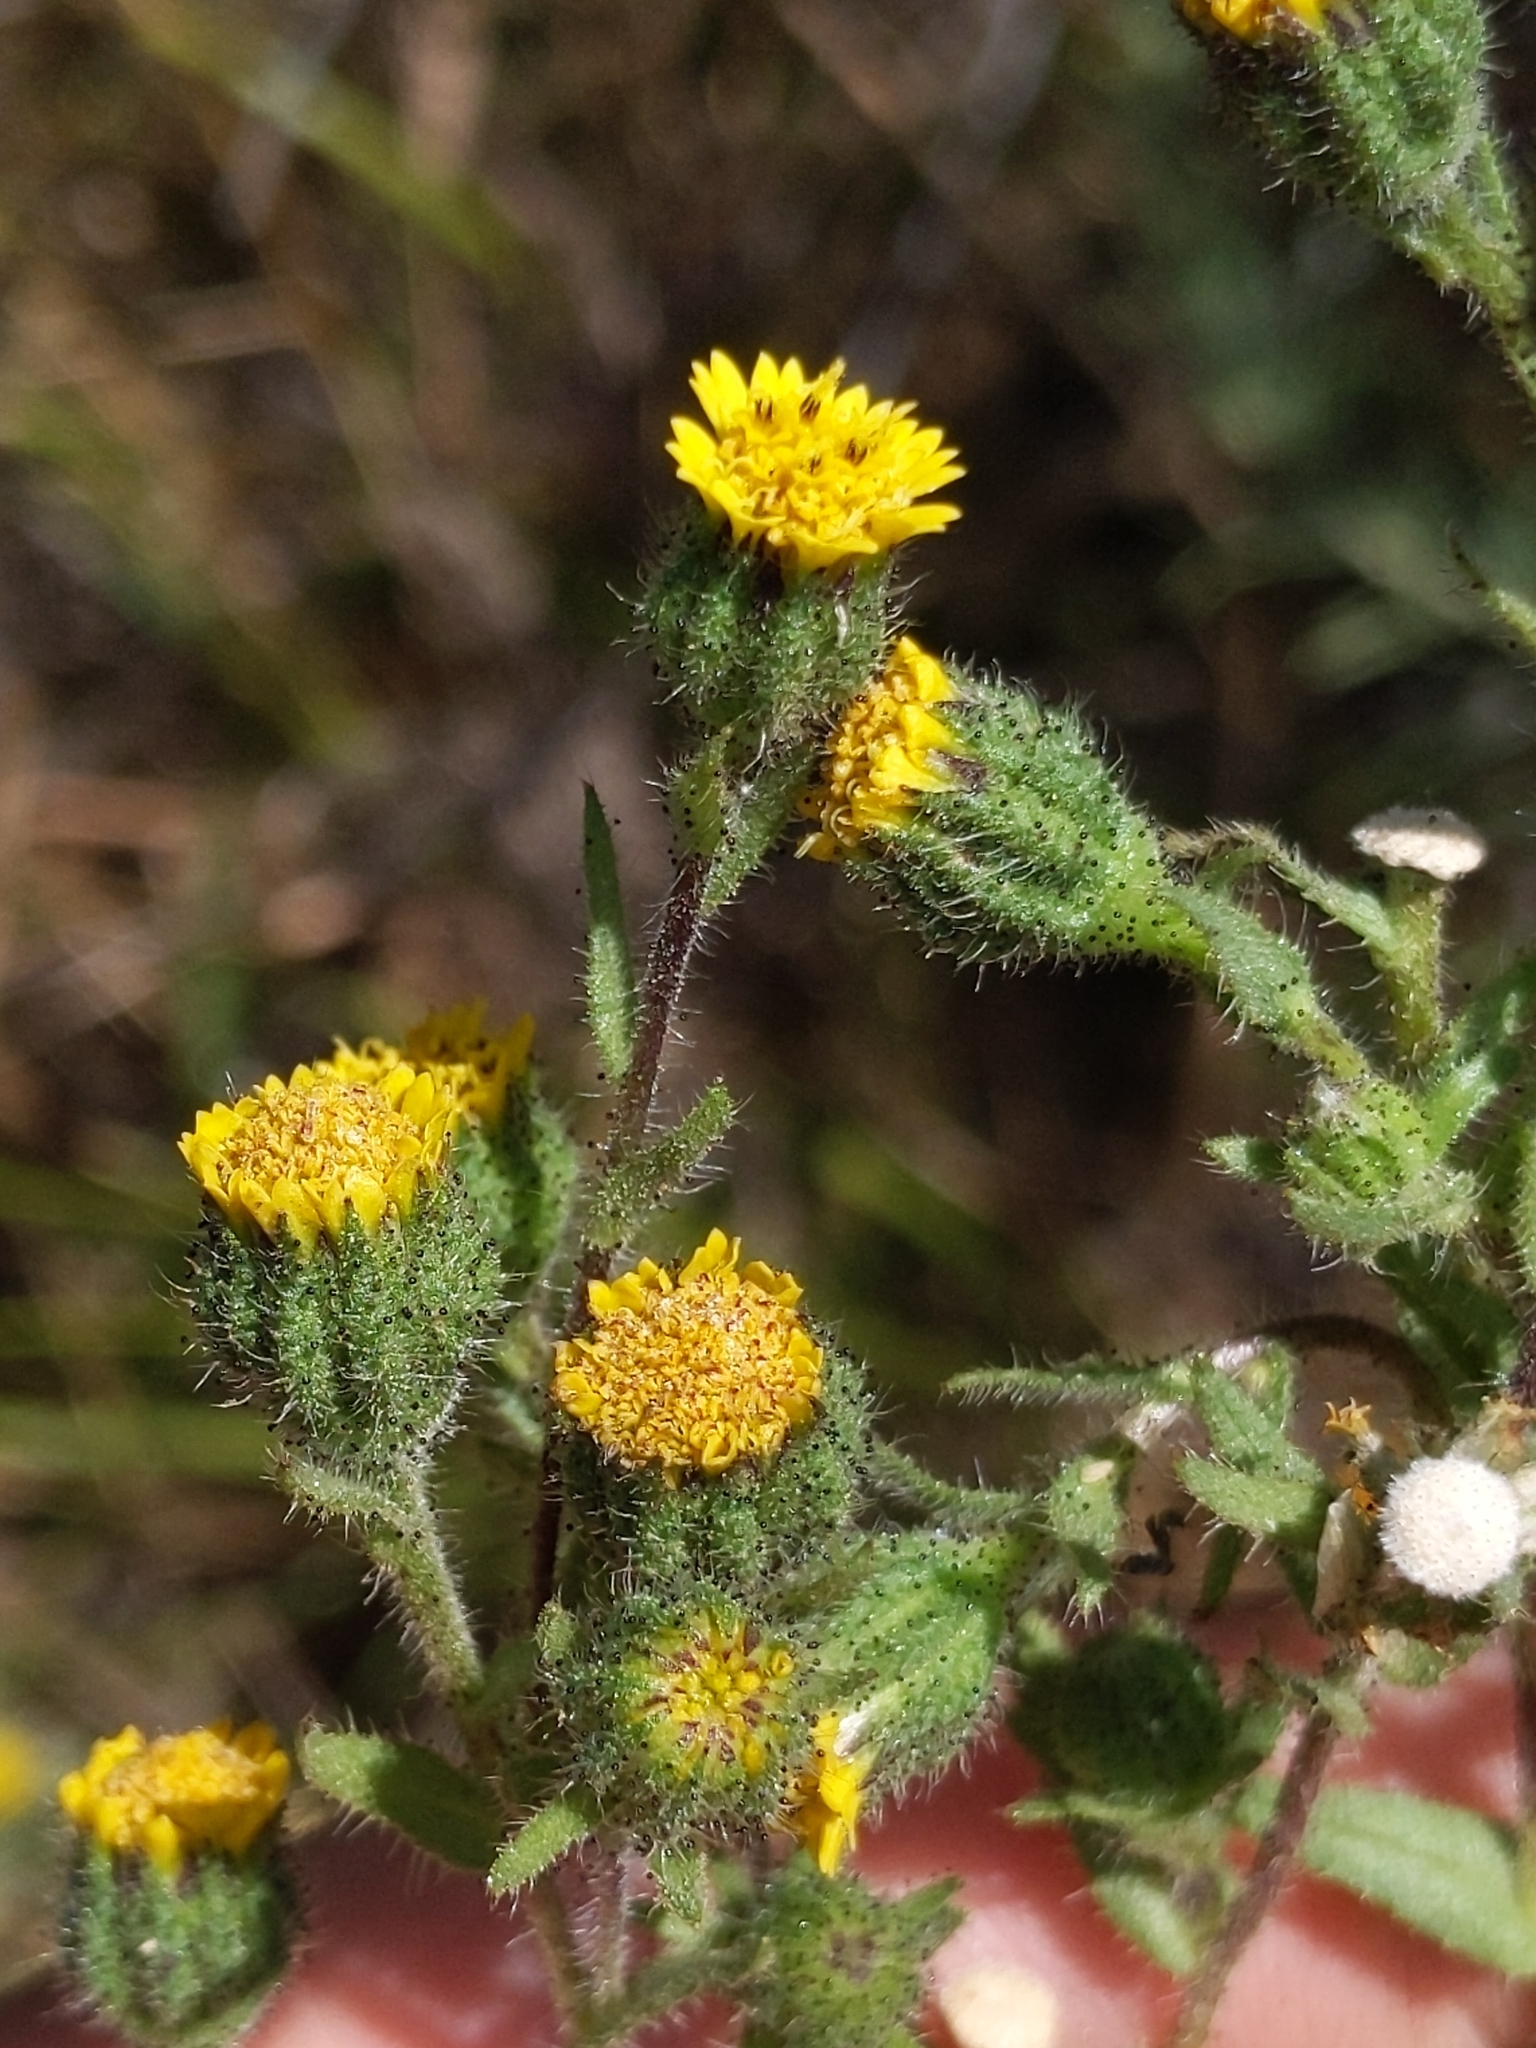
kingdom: Plantae
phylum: Tracheophyta
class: Magnoliopsida
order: Asterales
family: Asteraceae
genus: Layia
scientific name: Layia hieracioides
